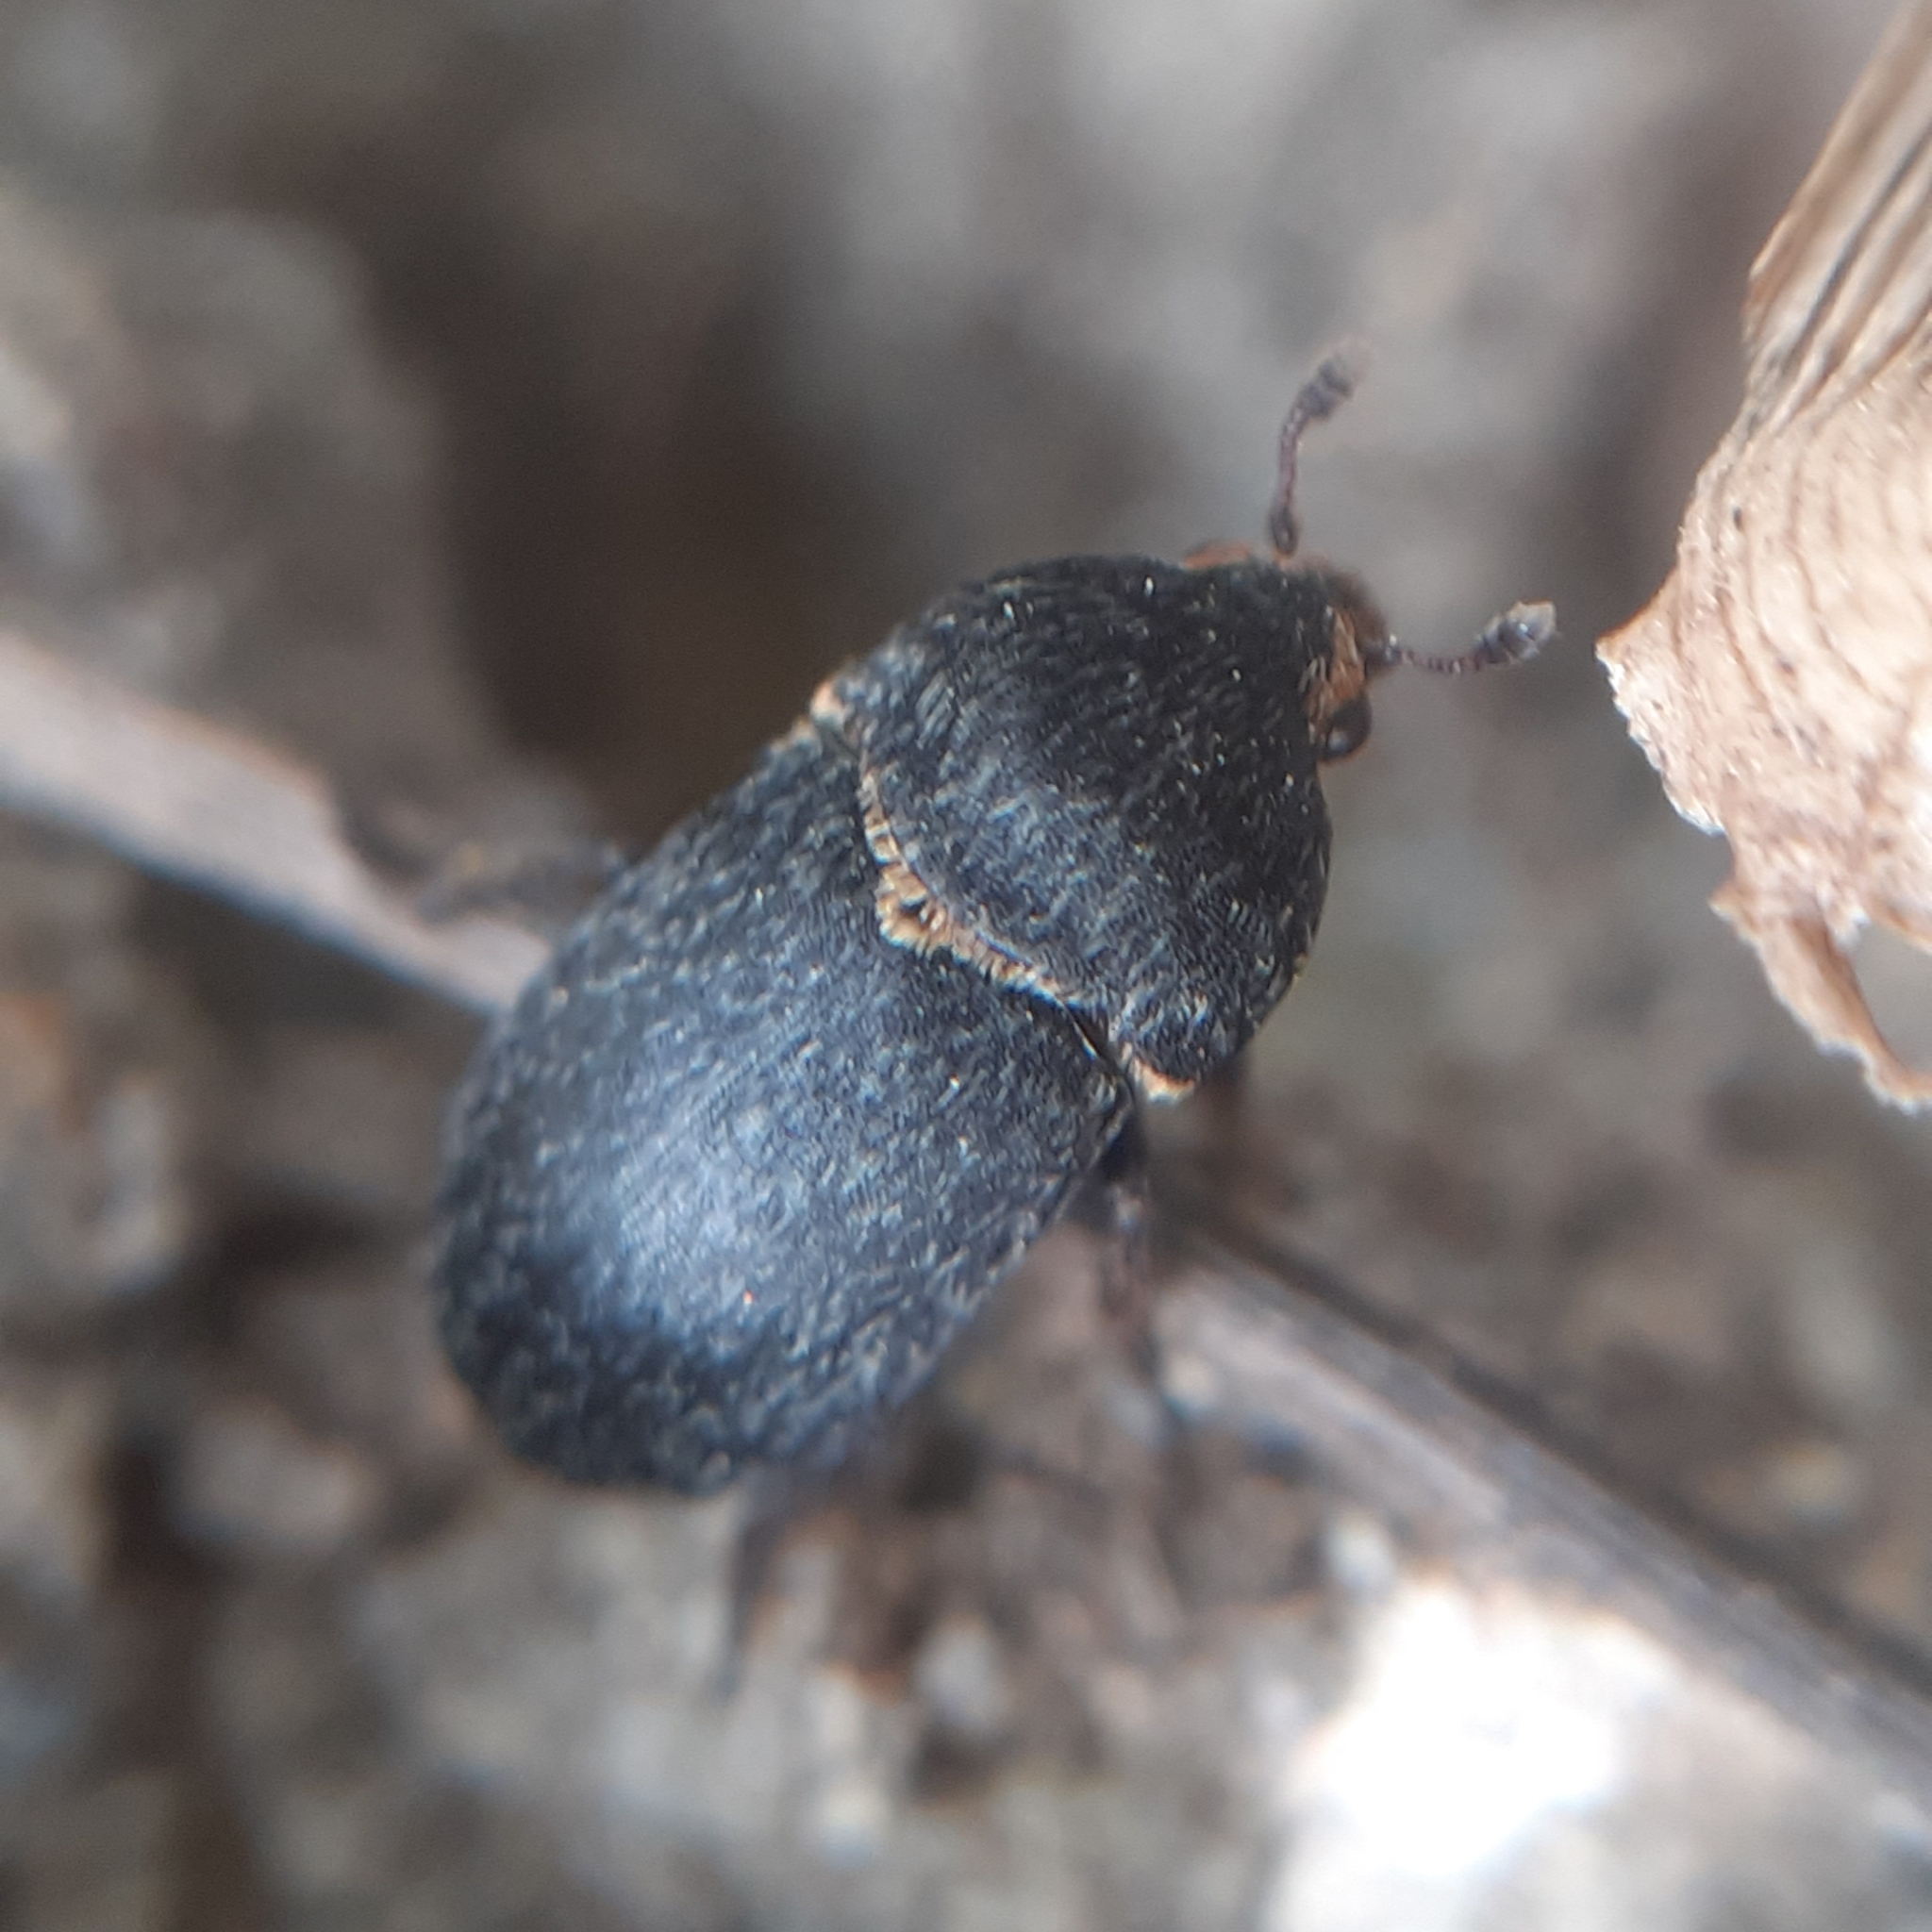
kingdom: Animalia
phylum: Arthropoda
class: Insecta
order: Coleoptera
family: Dermestidae
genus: Dermestes
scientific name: Dermestes laniarius
